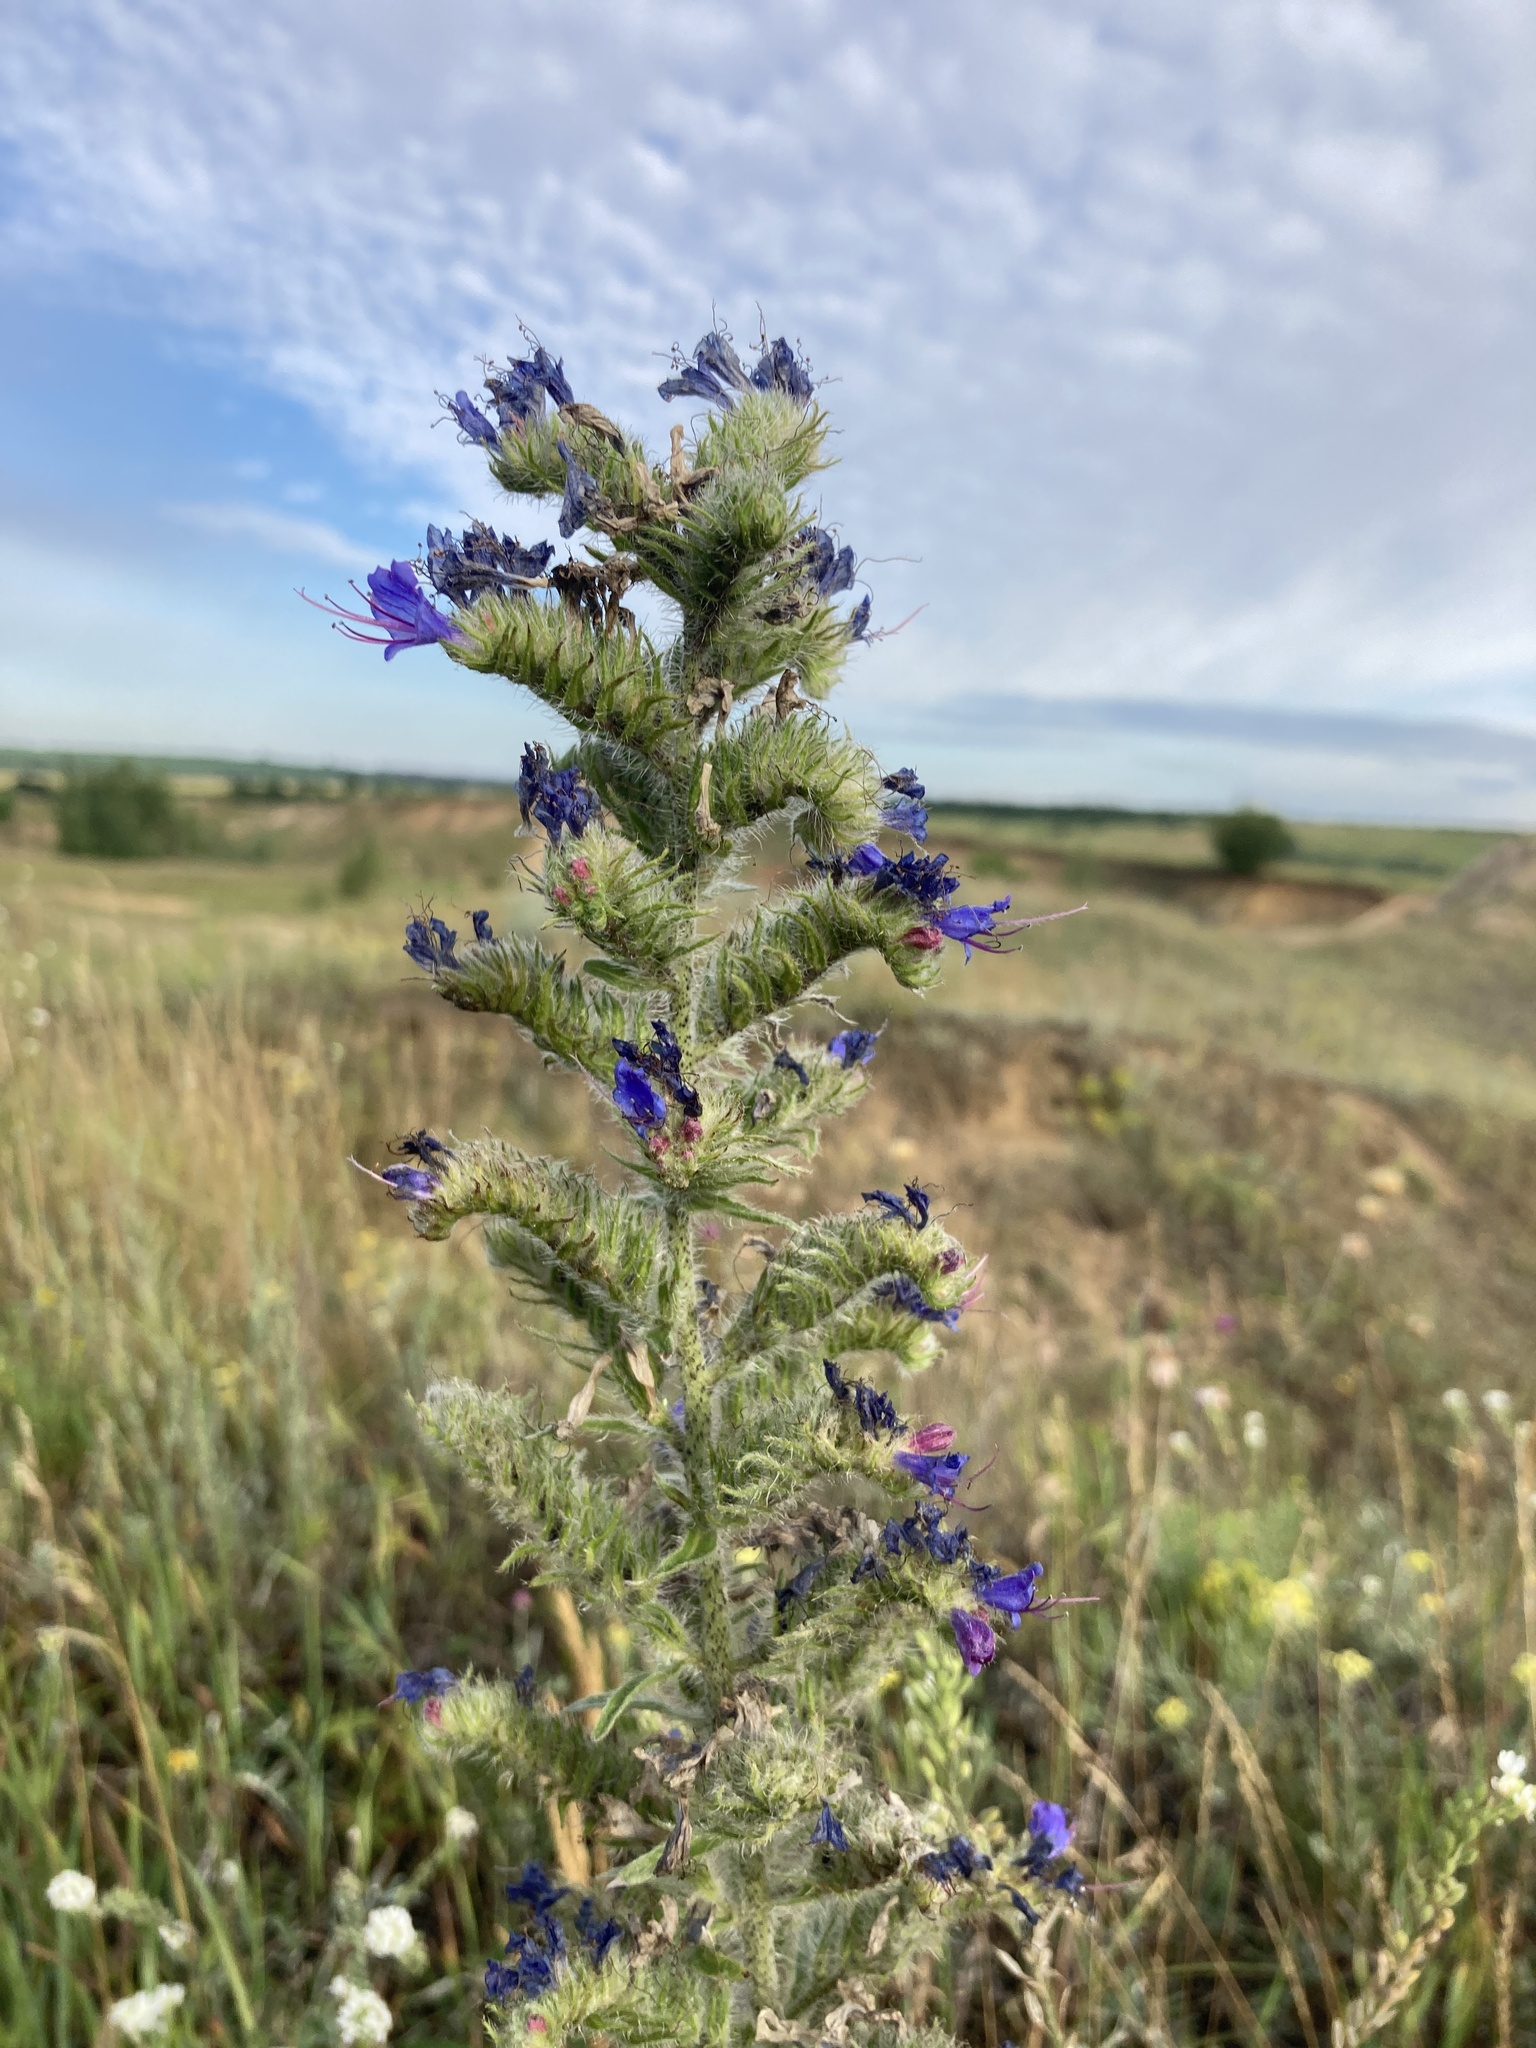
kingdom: Plantae
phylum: Tracheophyta
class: Magnoliopsida
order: Boraginales
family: Boraginaceae
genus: Echium
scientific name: Echium vulgare
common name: Common viper's bugloss
